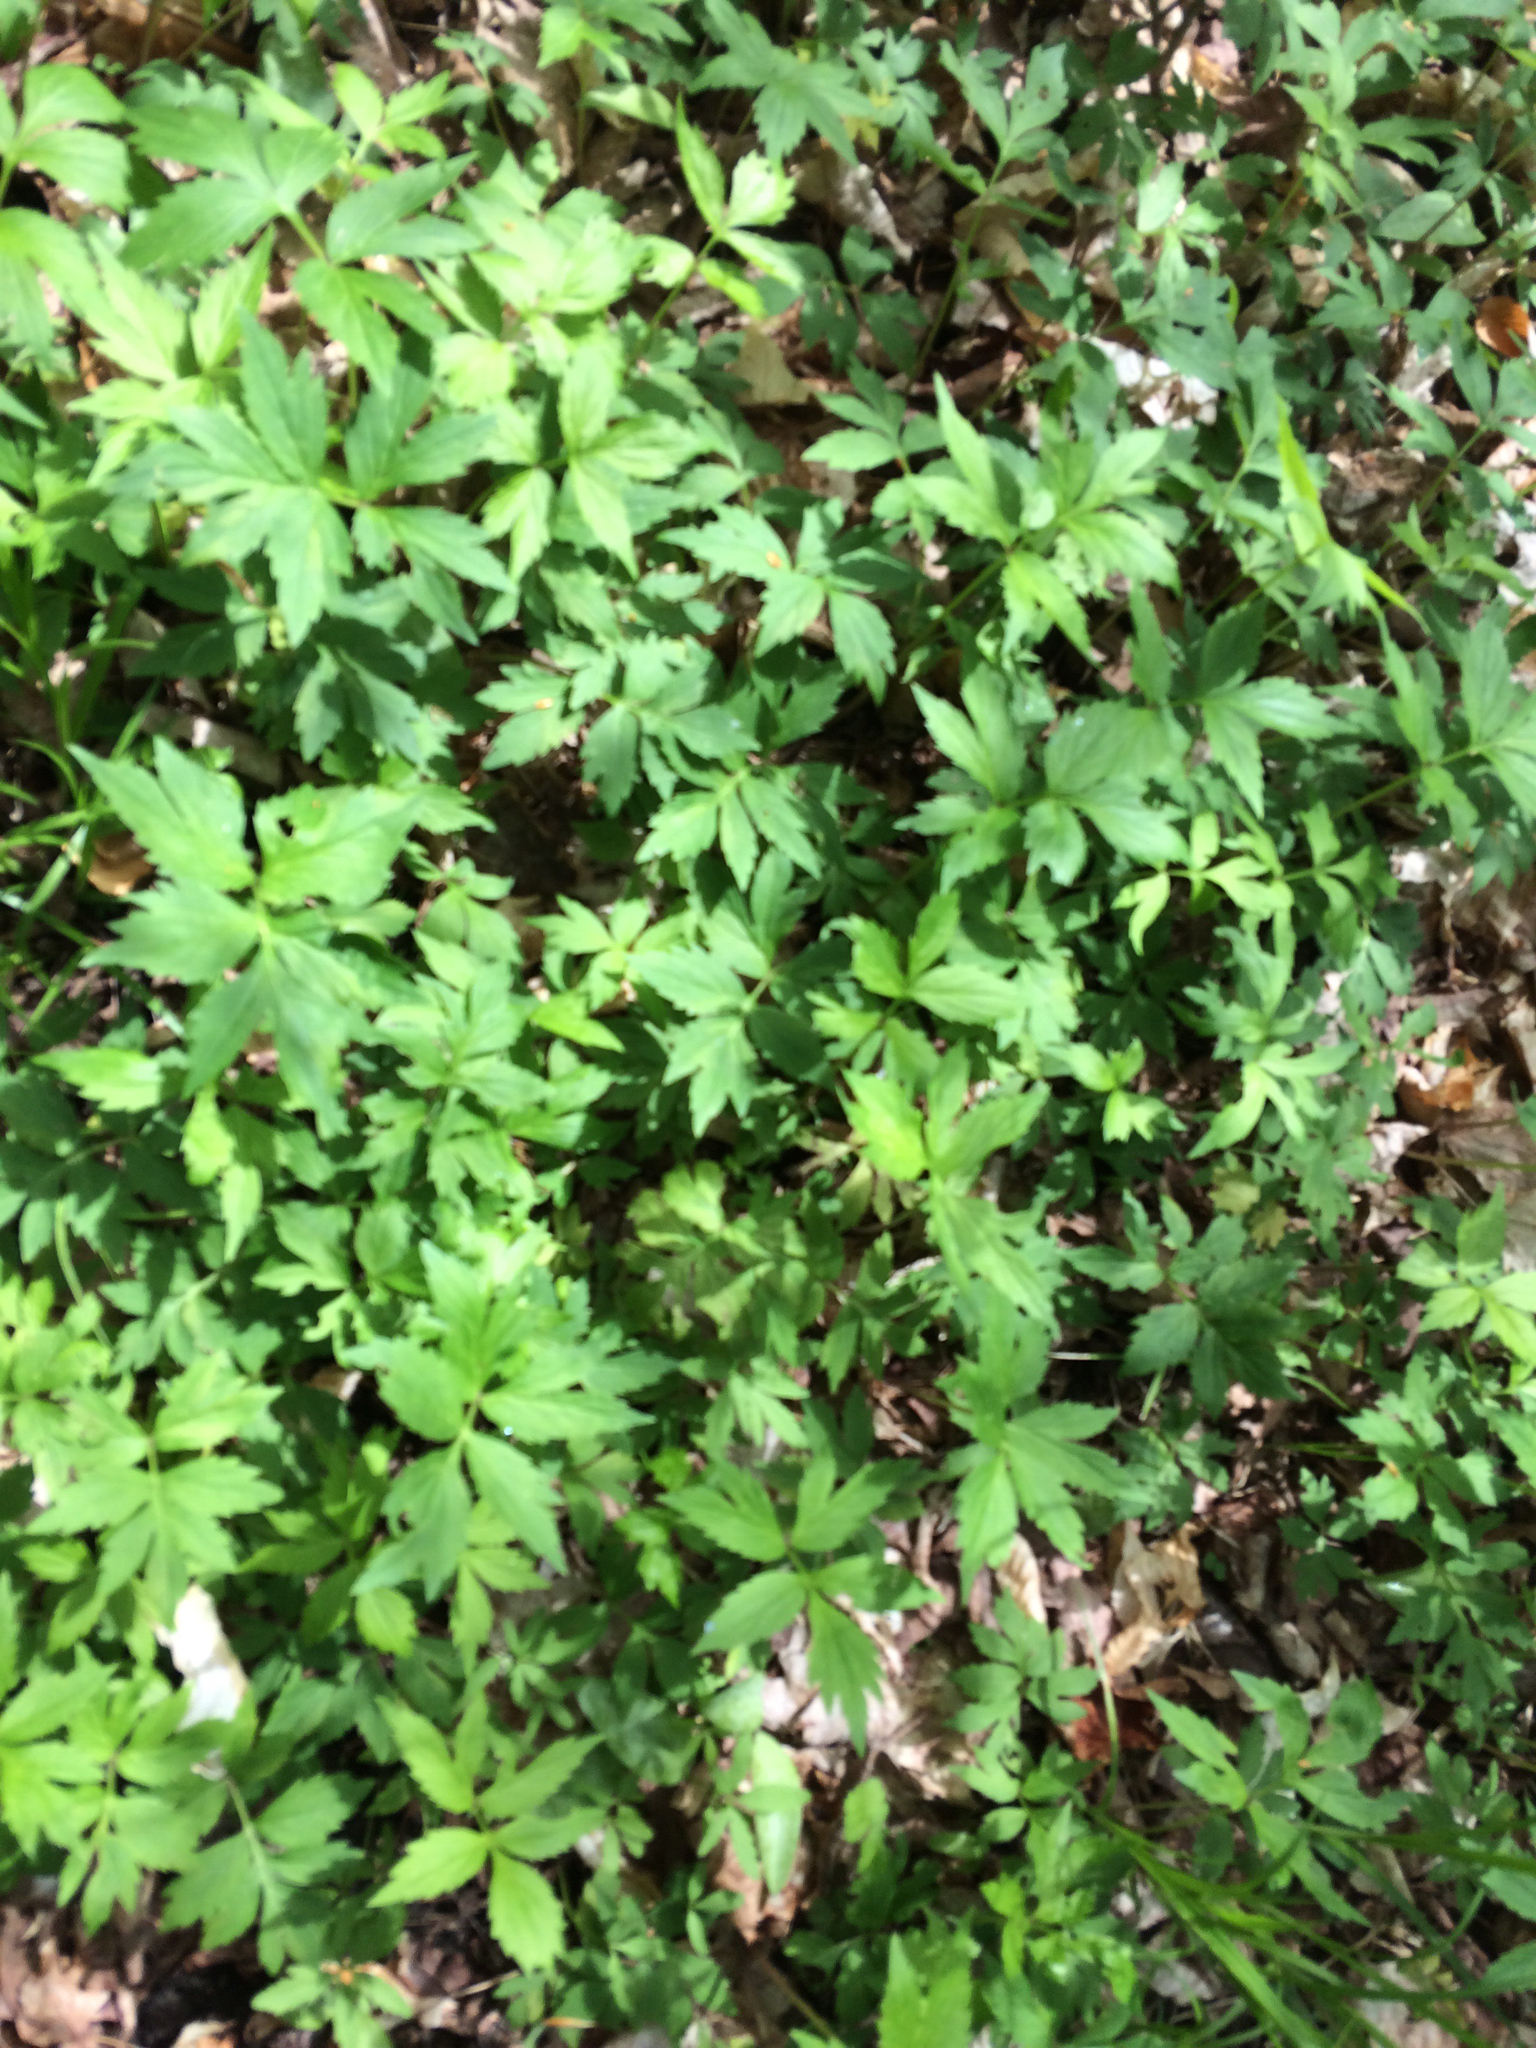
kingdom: Plantae
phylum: Tracheophyta
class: Magnoliopsida
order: Boraginales
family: Hydrophyllaceae
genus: Hydrophyllum
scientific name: Hydrophyllum virginianum
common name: Virginia waterleaf
